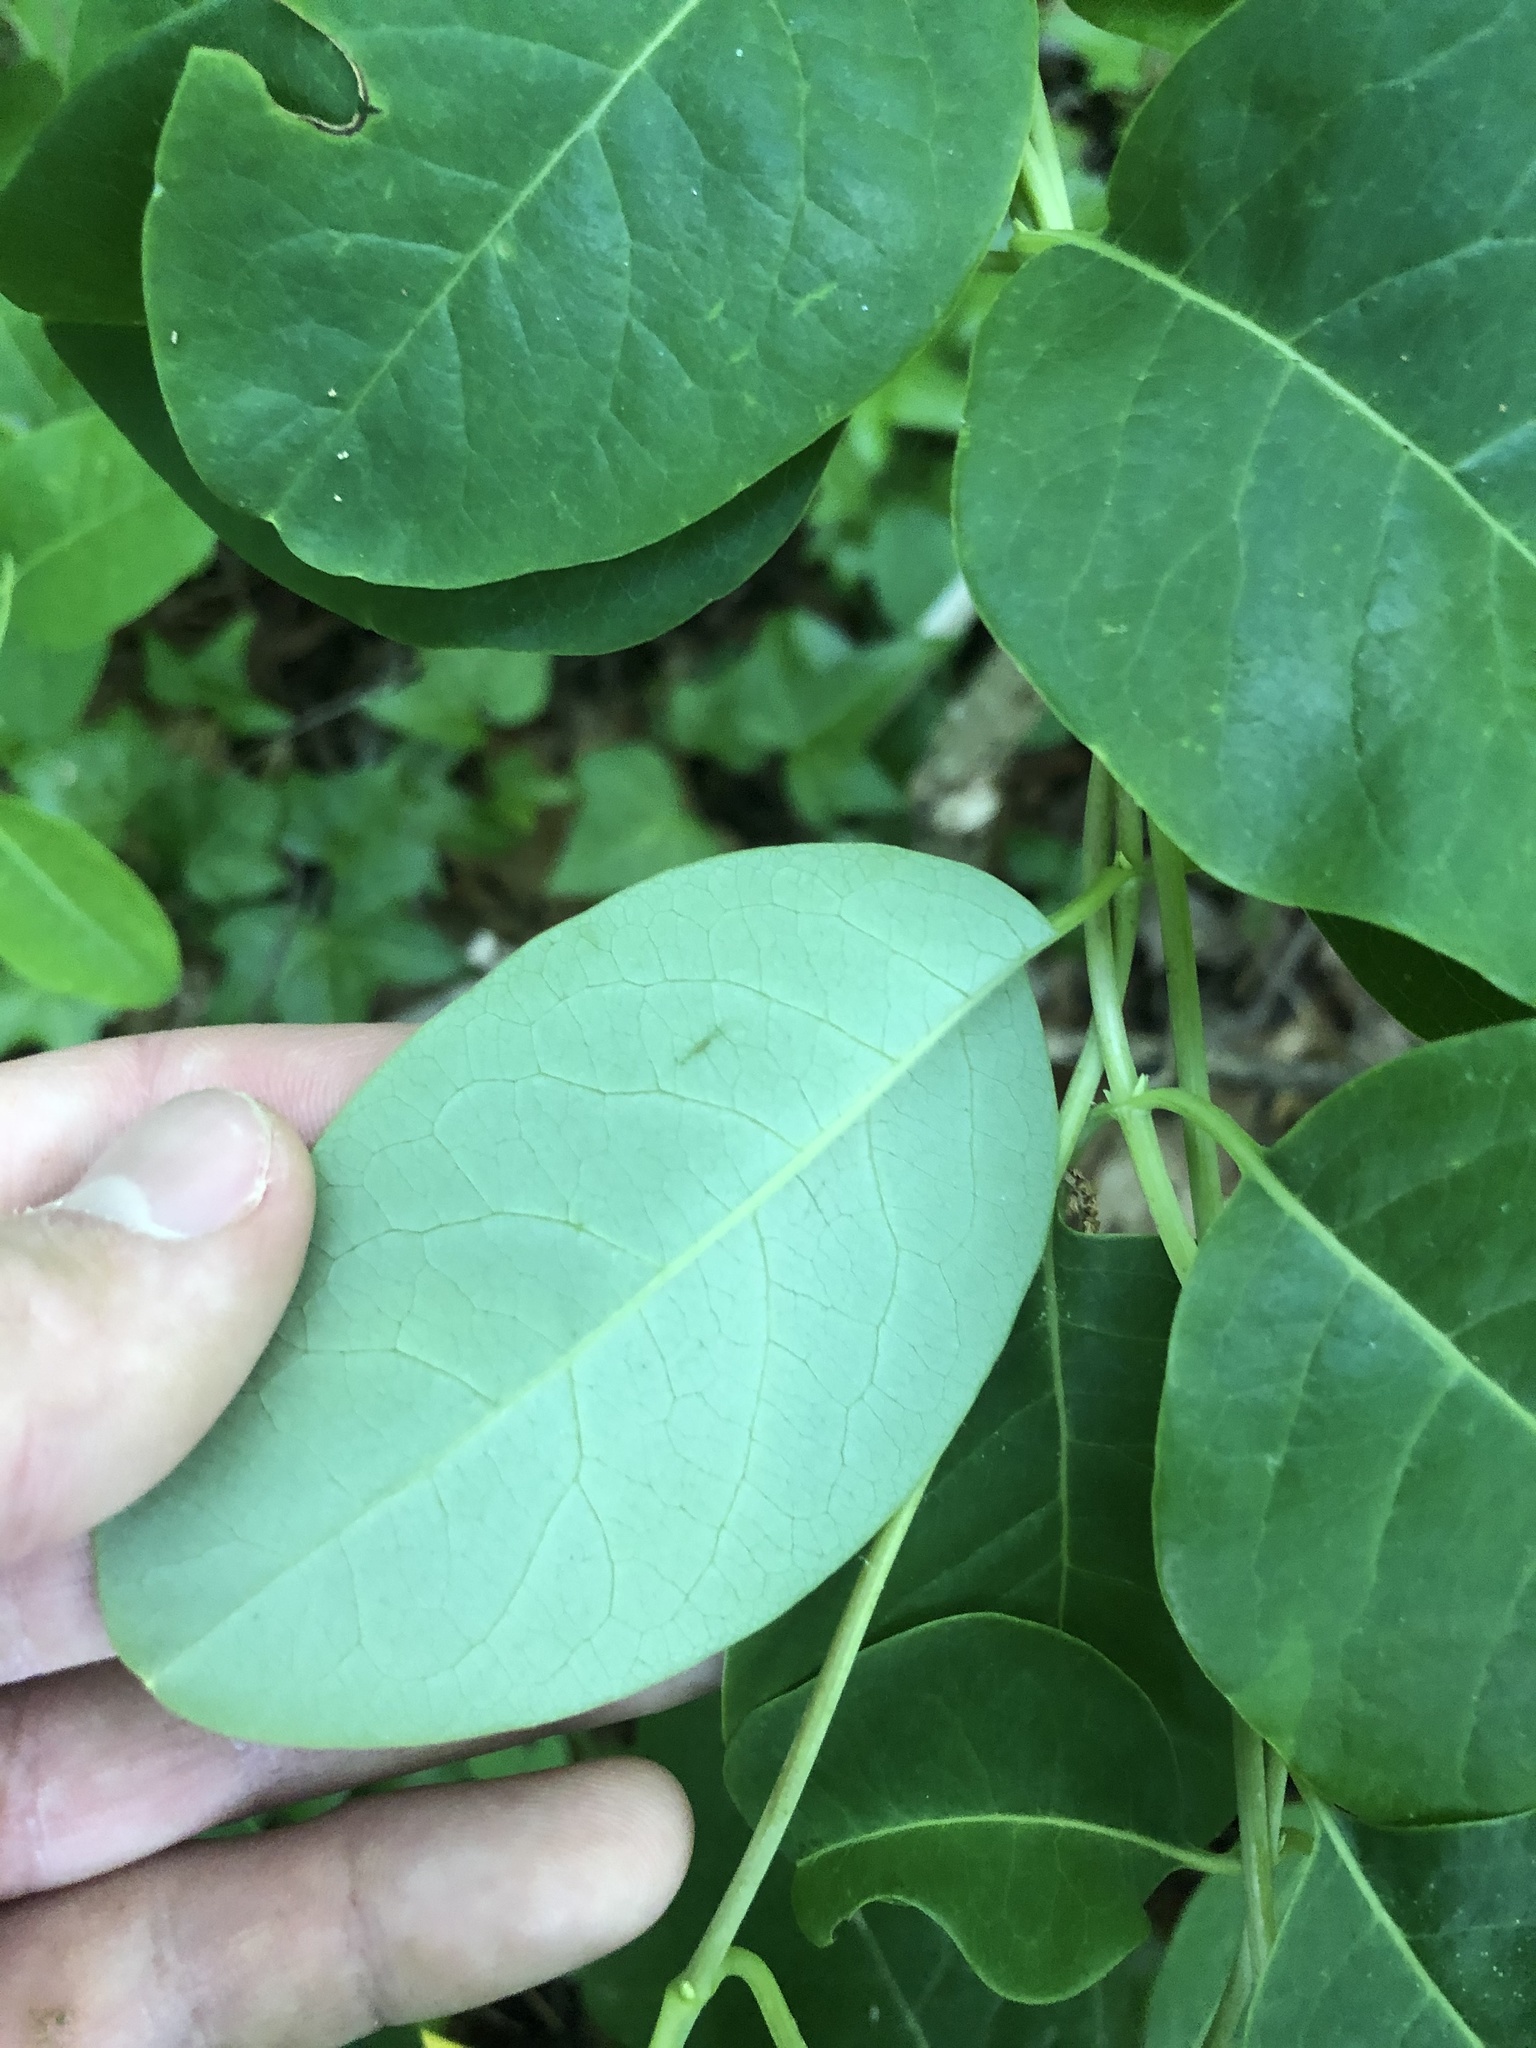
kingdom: Plantae
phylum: Tracheophyta
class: Magnoliopsida
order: Dipsacales
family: Caprifoliaceae
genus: Lonicera
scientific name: Lonicera sempervirens
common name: Coral honeysuckle
